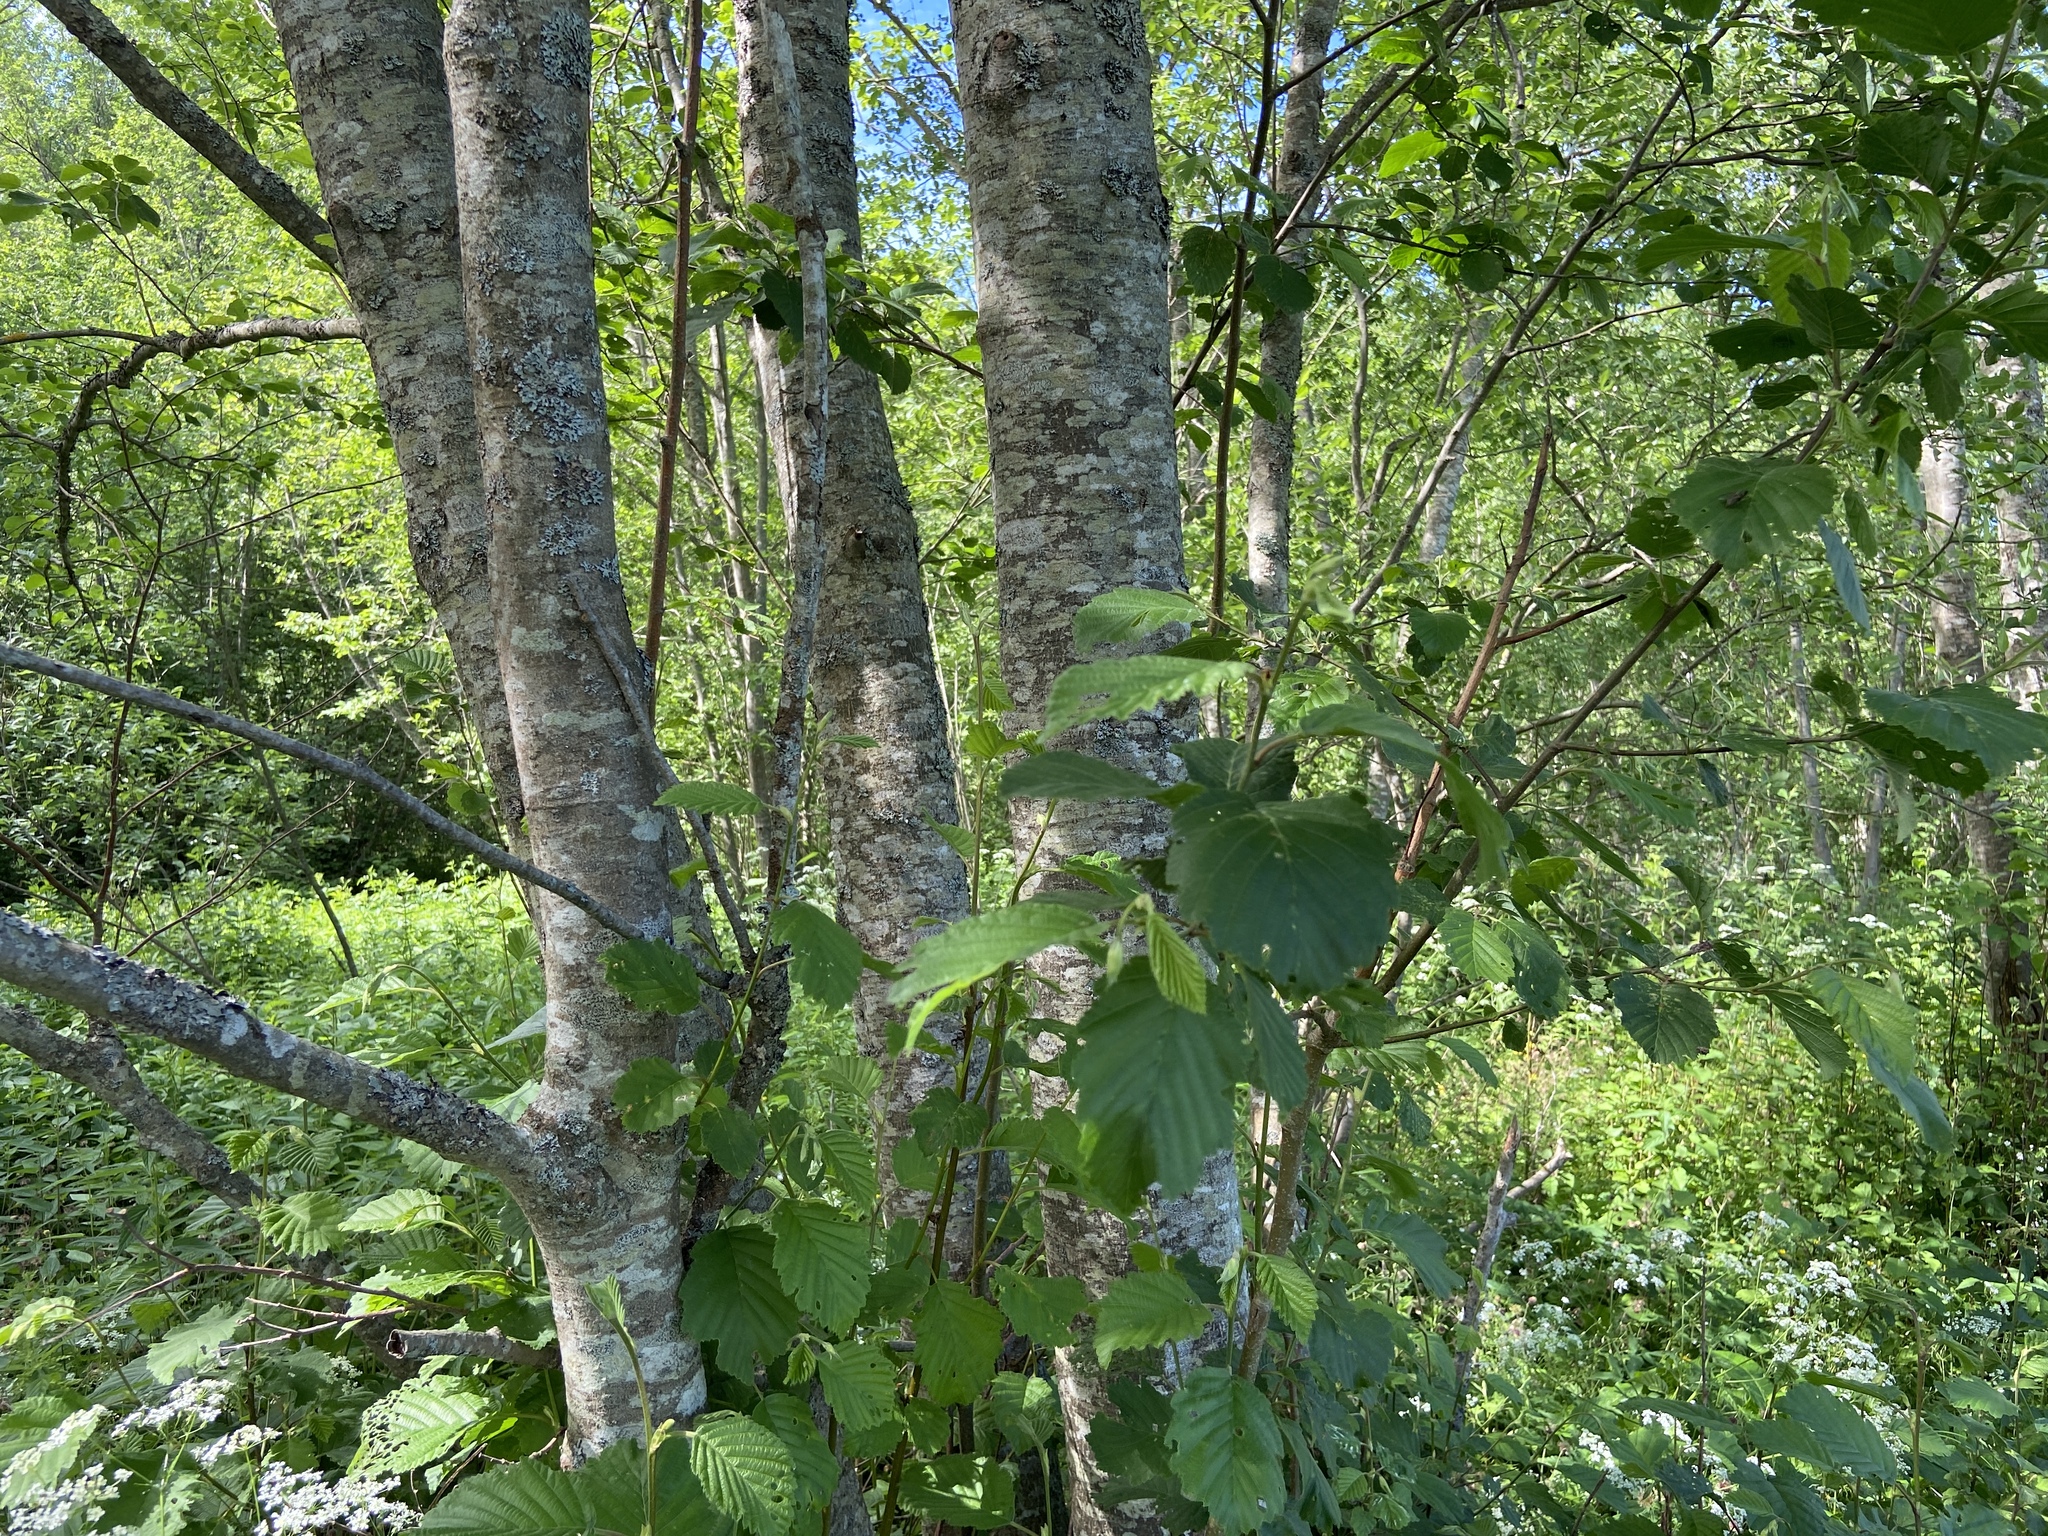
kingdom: Plantae
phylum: Tracheophyta
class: Magnoliopsida
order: Fagales
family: Betulaceae
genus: Alnus
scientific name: Alnus incana
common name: Grey alder
